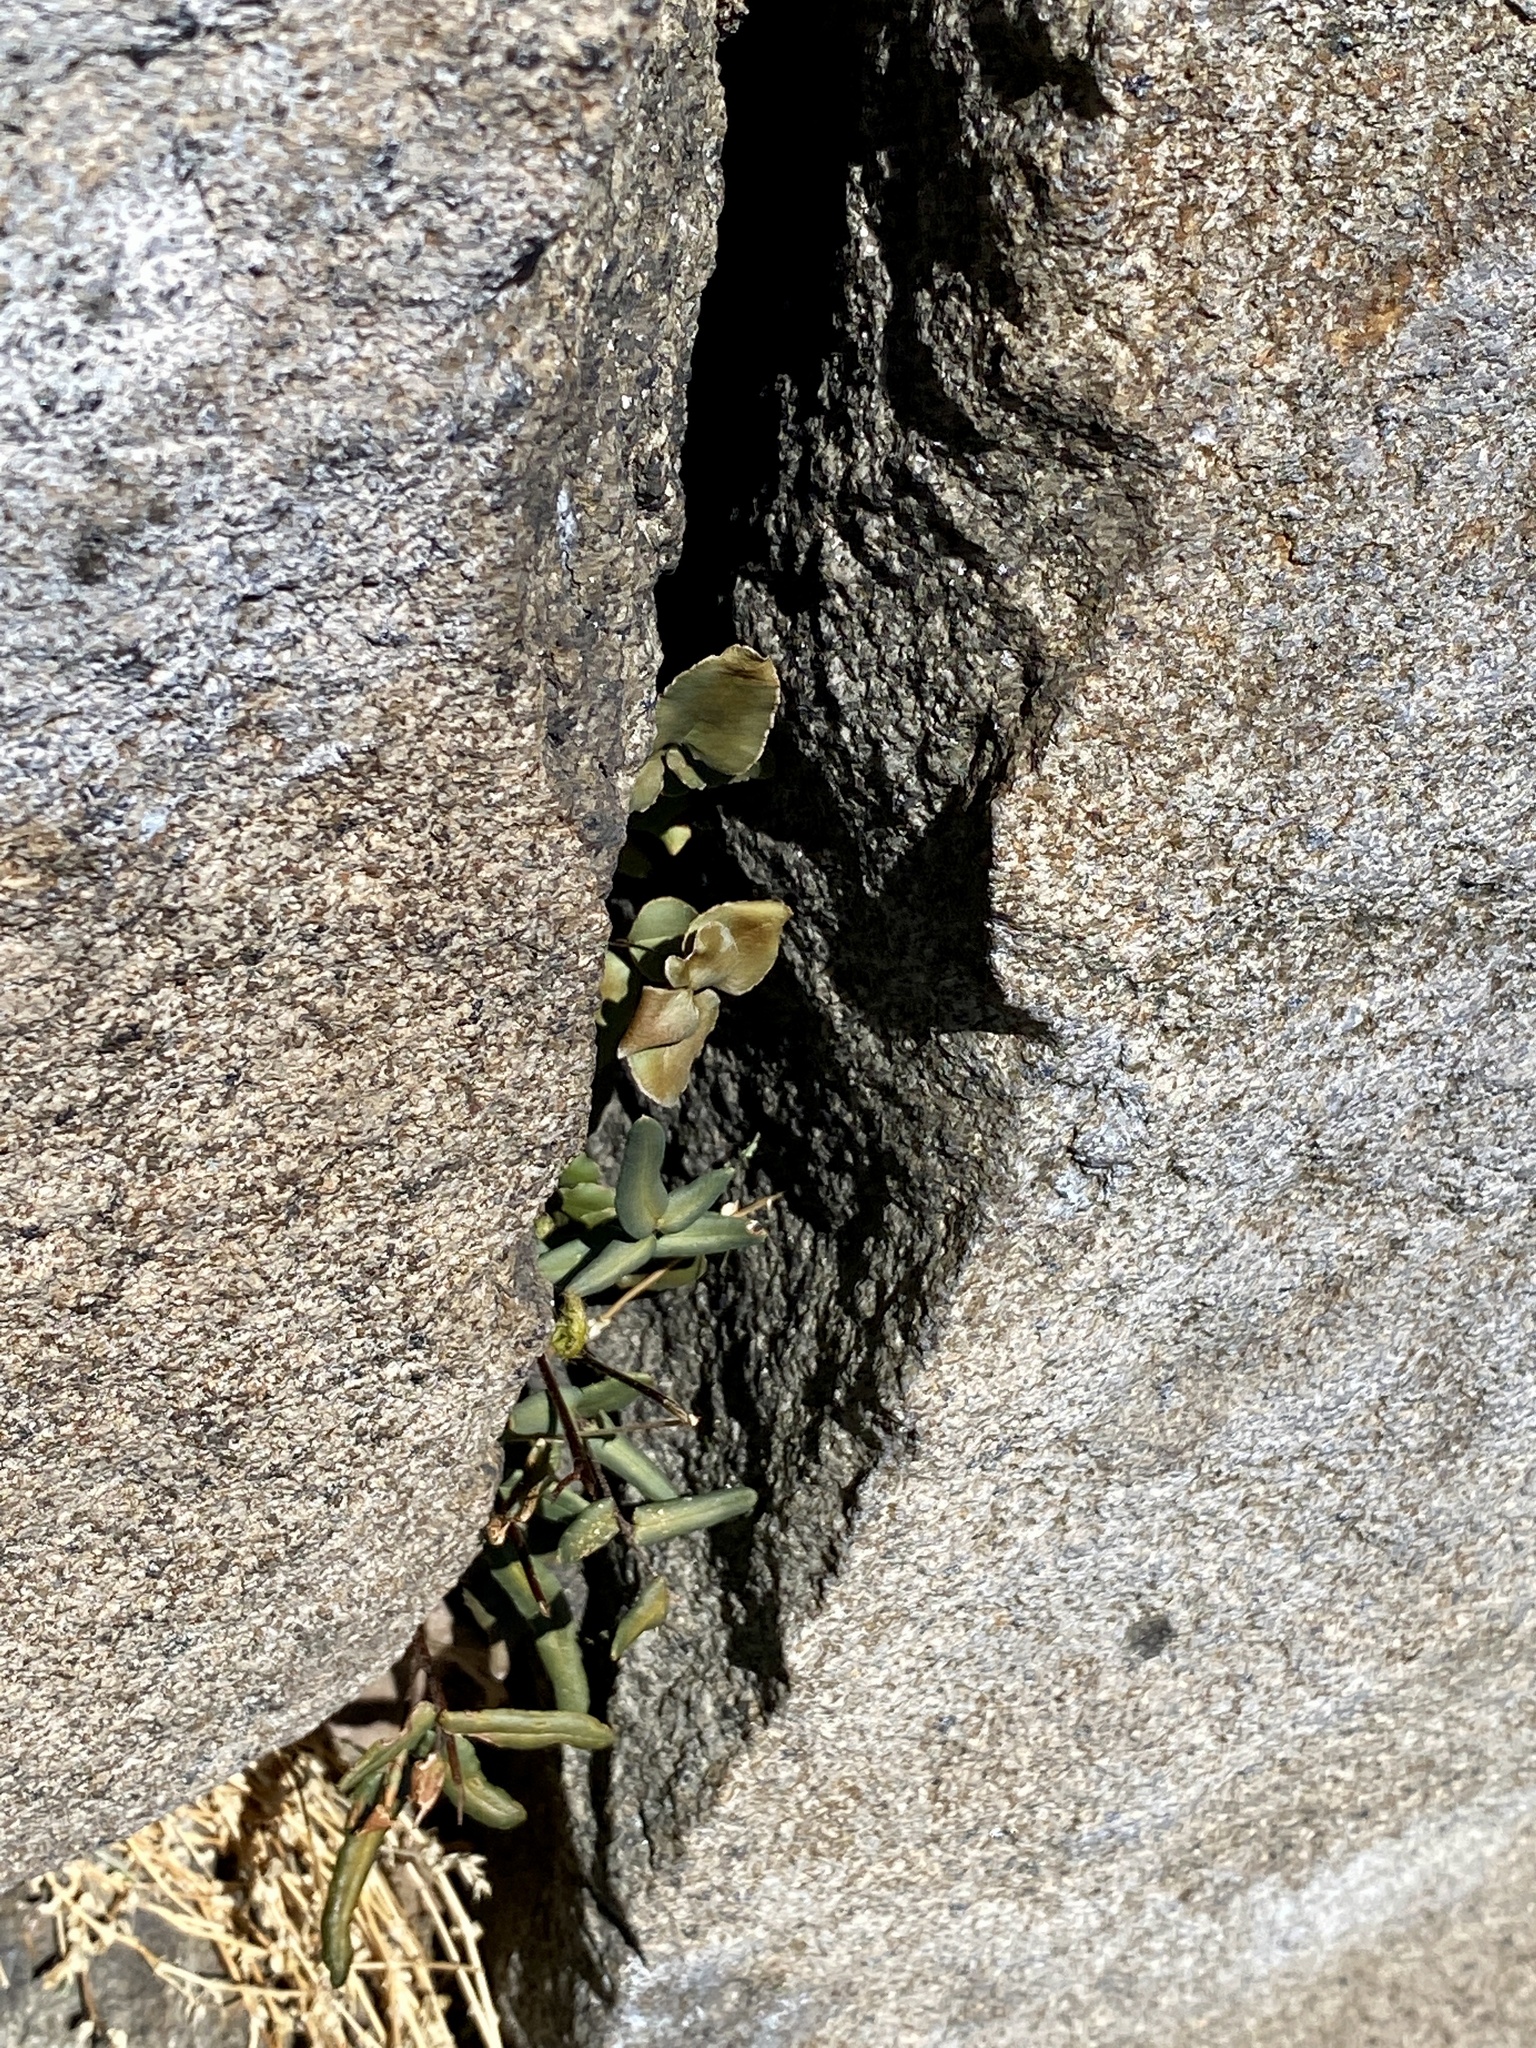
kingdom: Plantae
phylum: Tracheophyta
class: Polypodiopsida
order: Polypodiales
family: Pteridaceae
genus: Pellaea
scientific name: Pellaea atropurpurea
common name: Hairy cliffbrake
